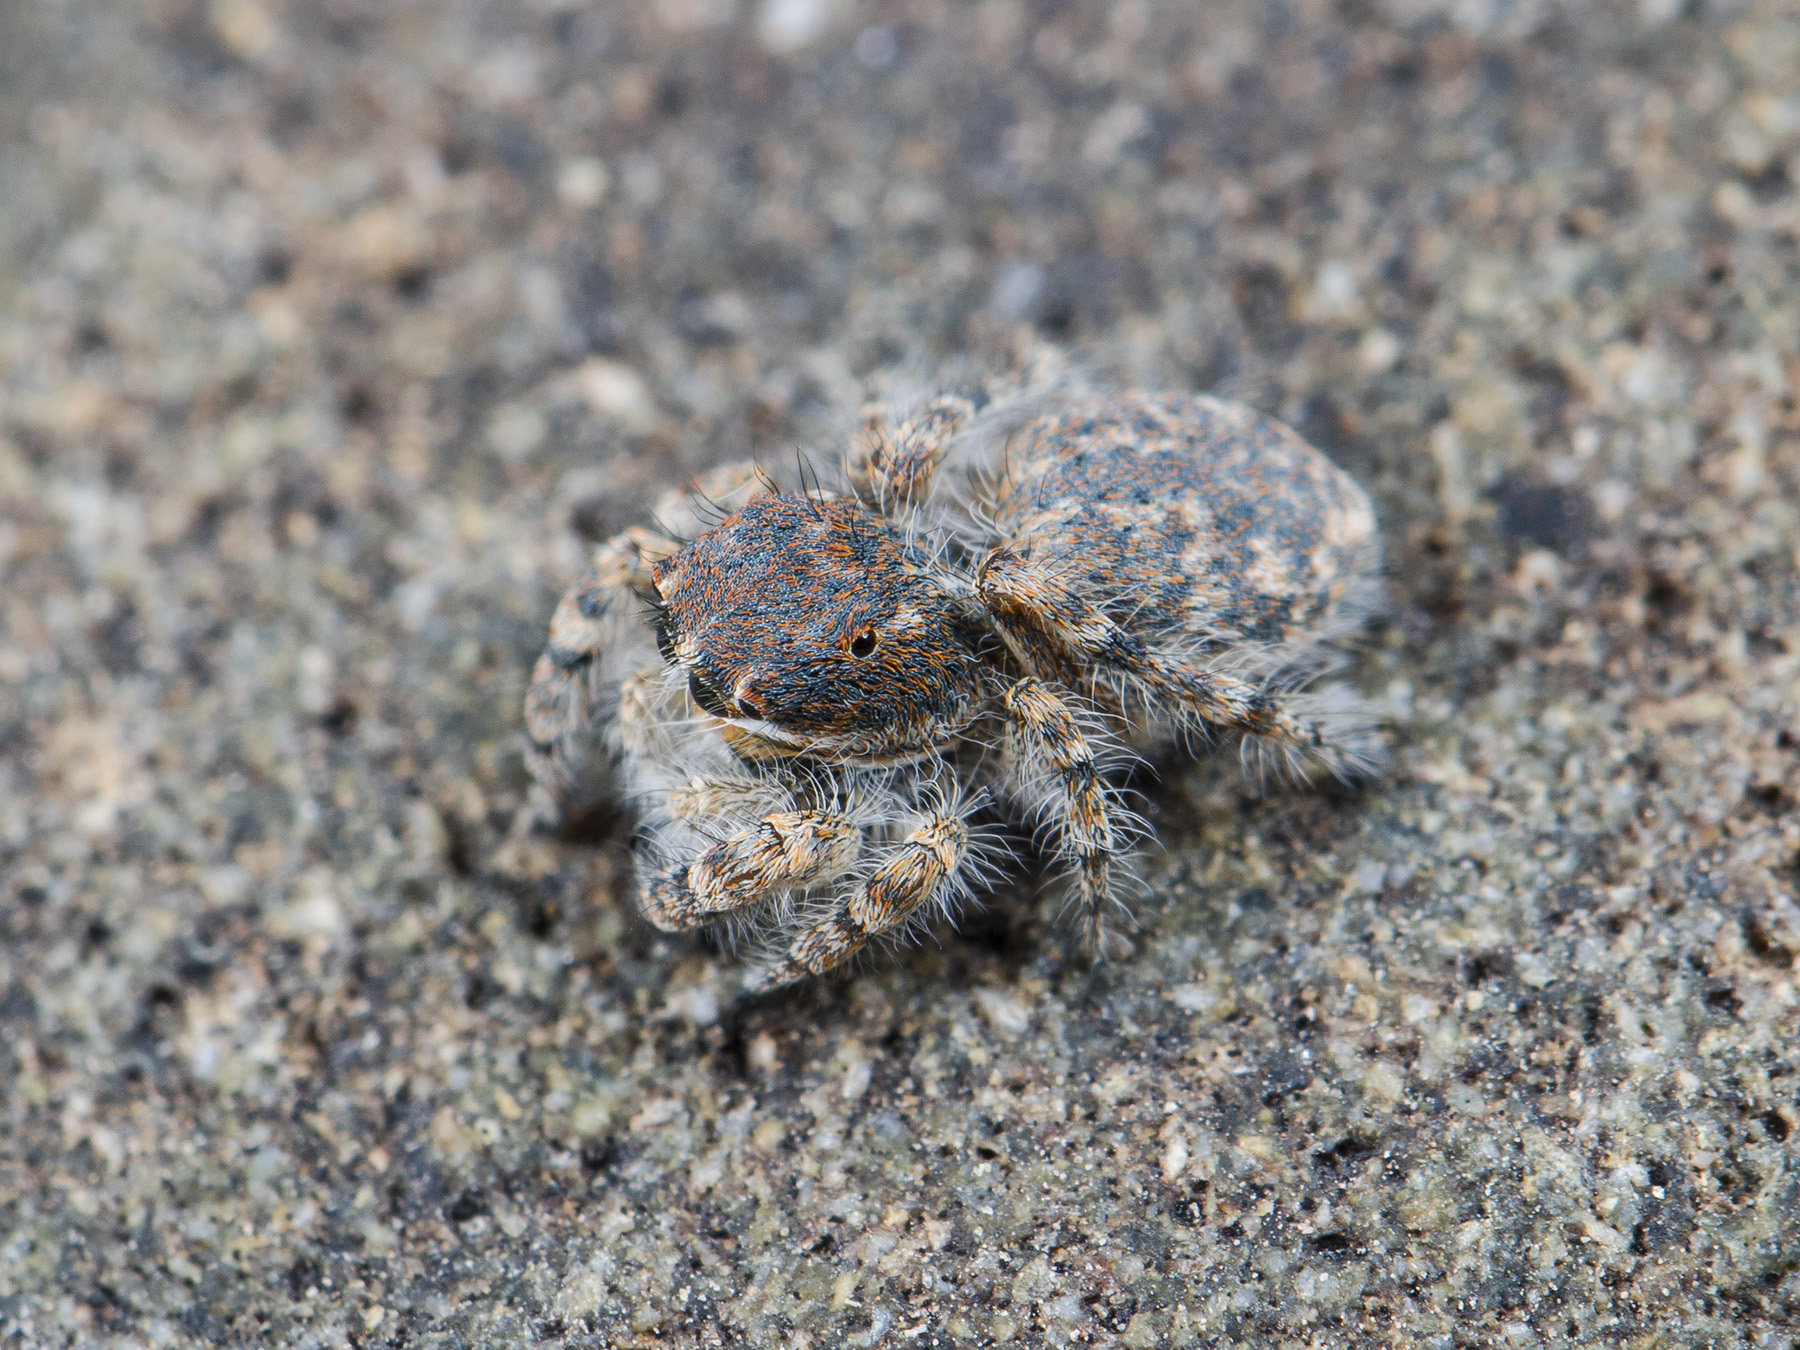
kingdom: Animalia
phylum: Arthropoda
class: Arachnida
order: Araneae
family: Salticidae
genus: Yllenus
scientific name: Yllenus zyuzini
